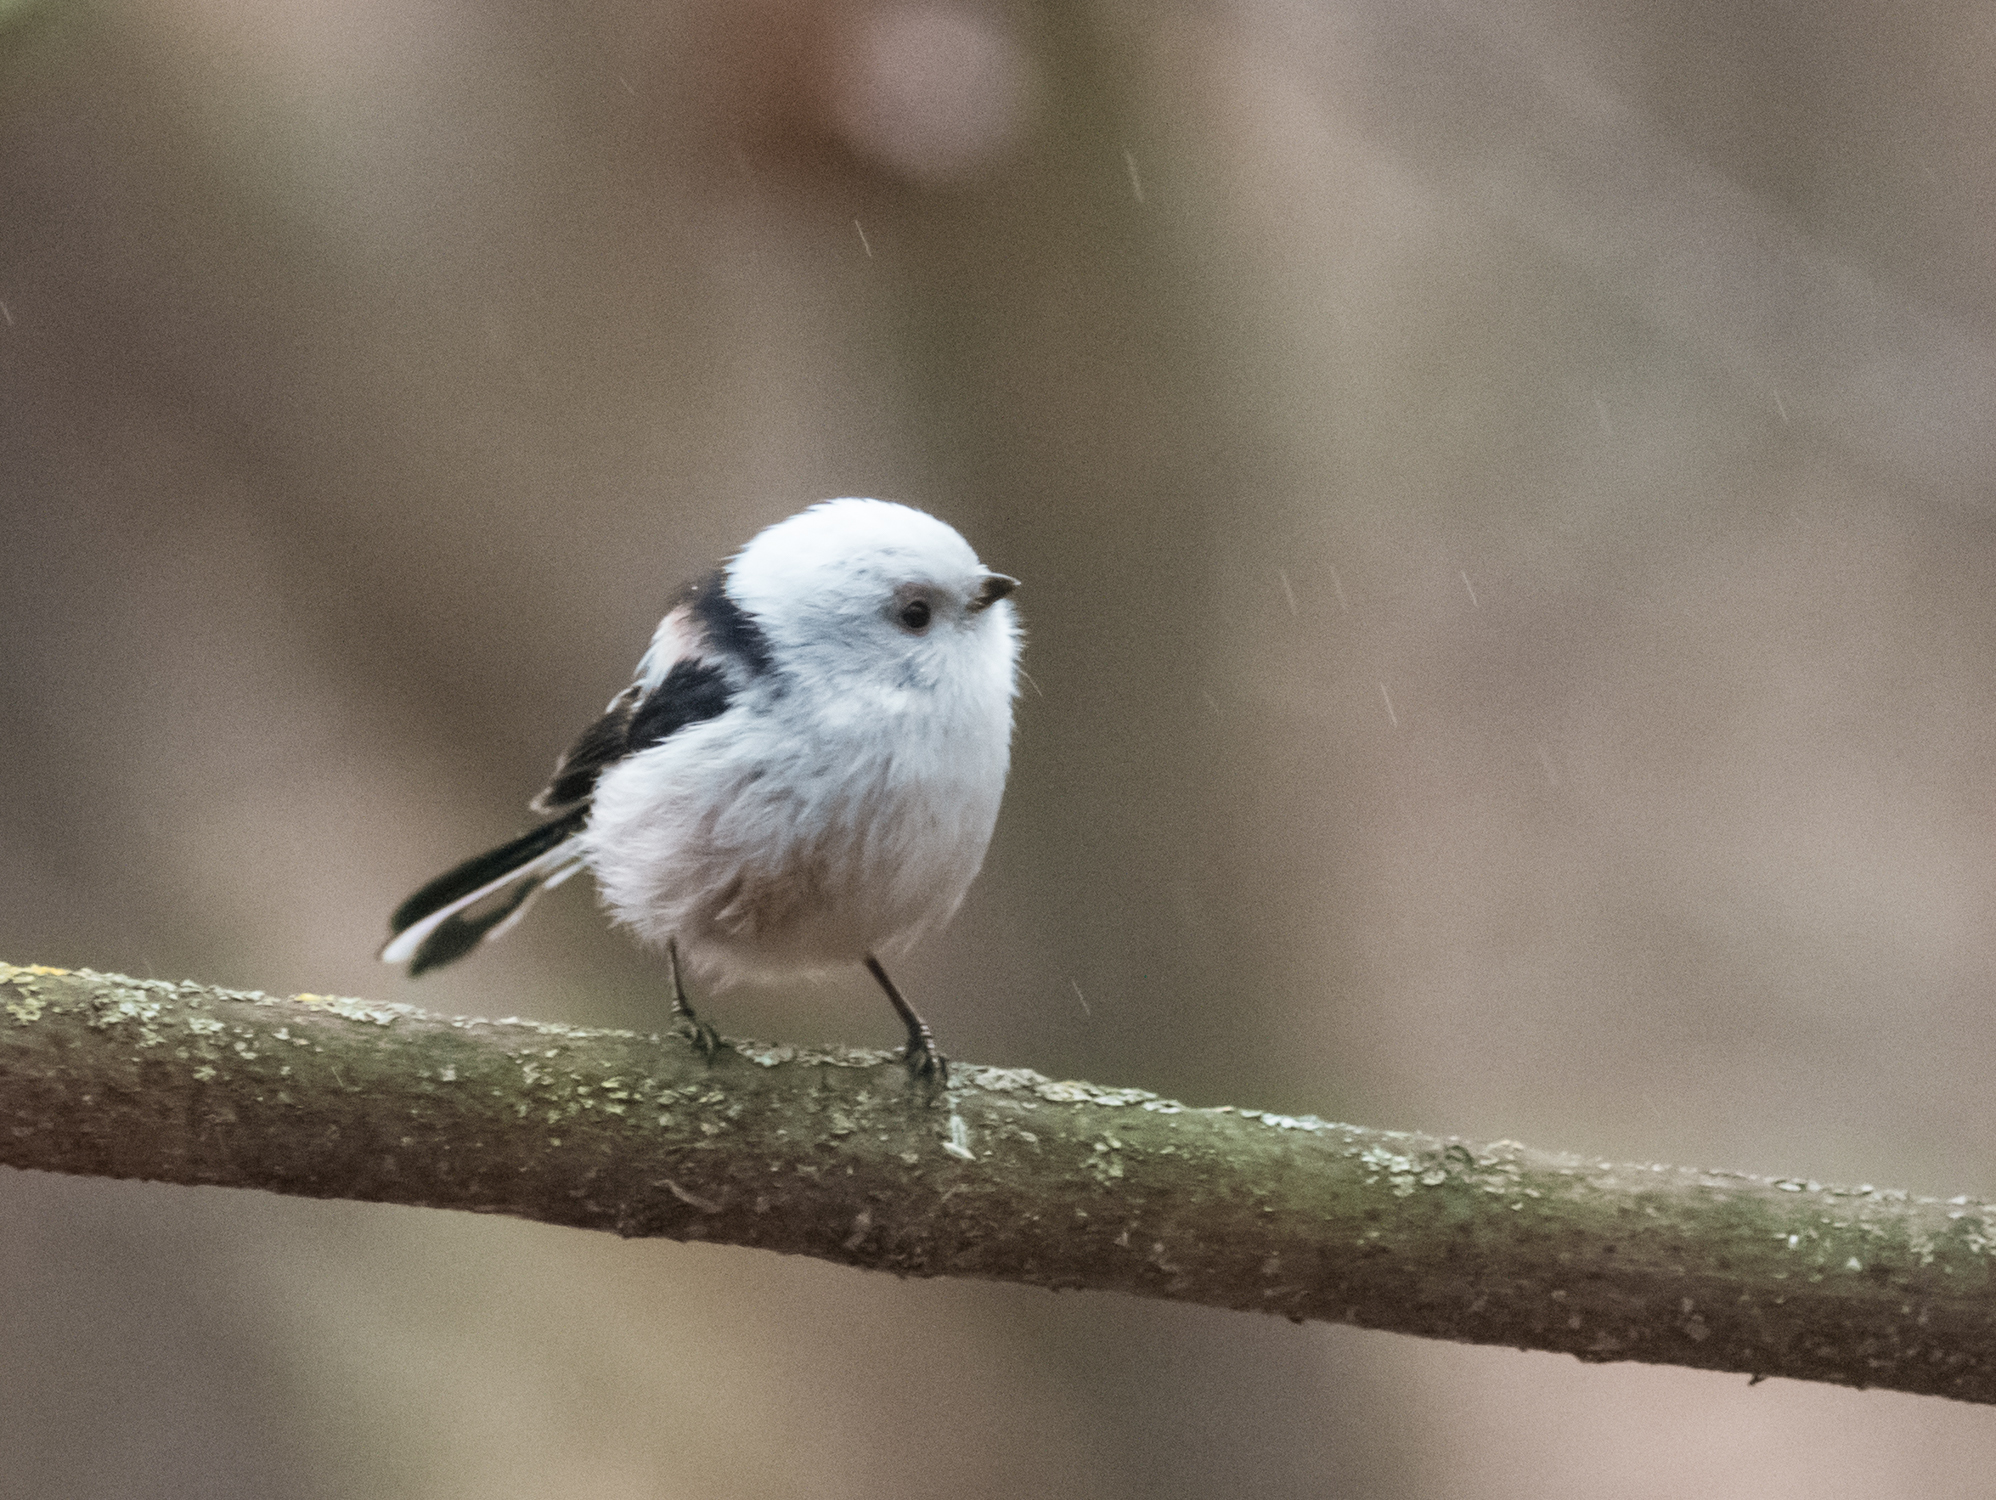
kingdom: Animalia
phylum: Chordata
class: Aves
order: Passeriformes
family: Aegithalidae
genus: Aegithalos
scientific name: Aegithalos caudatus
